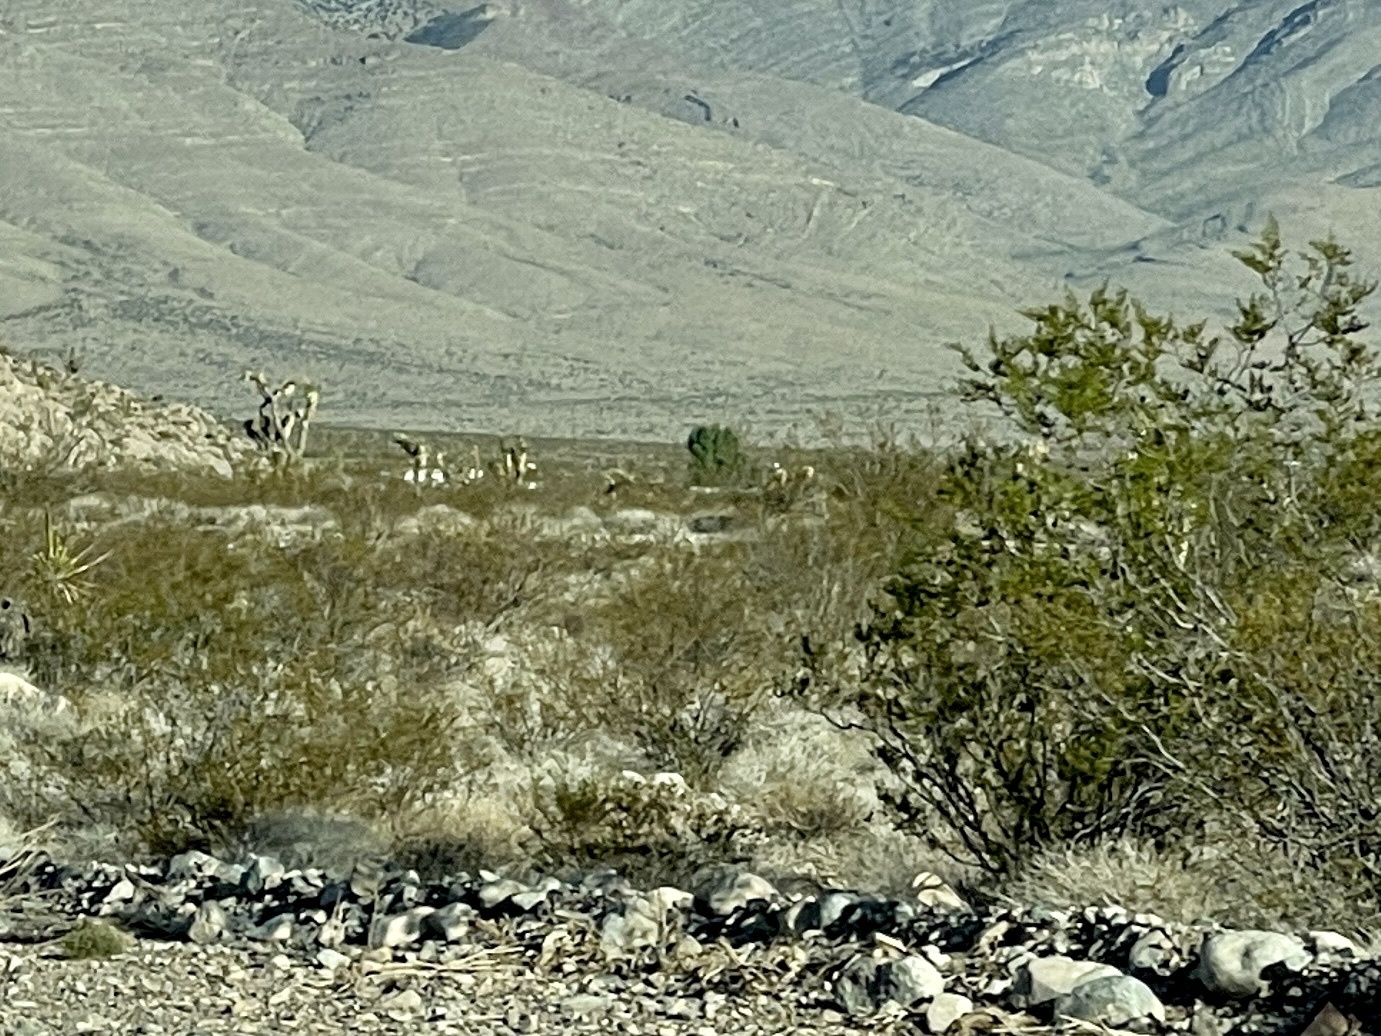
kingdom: Plantae
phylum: Tracheophyta
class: Magnoliopsida
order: Zygophyllales
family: Zygophyllaceae
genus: Larrea
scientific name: Larrea tridentata
